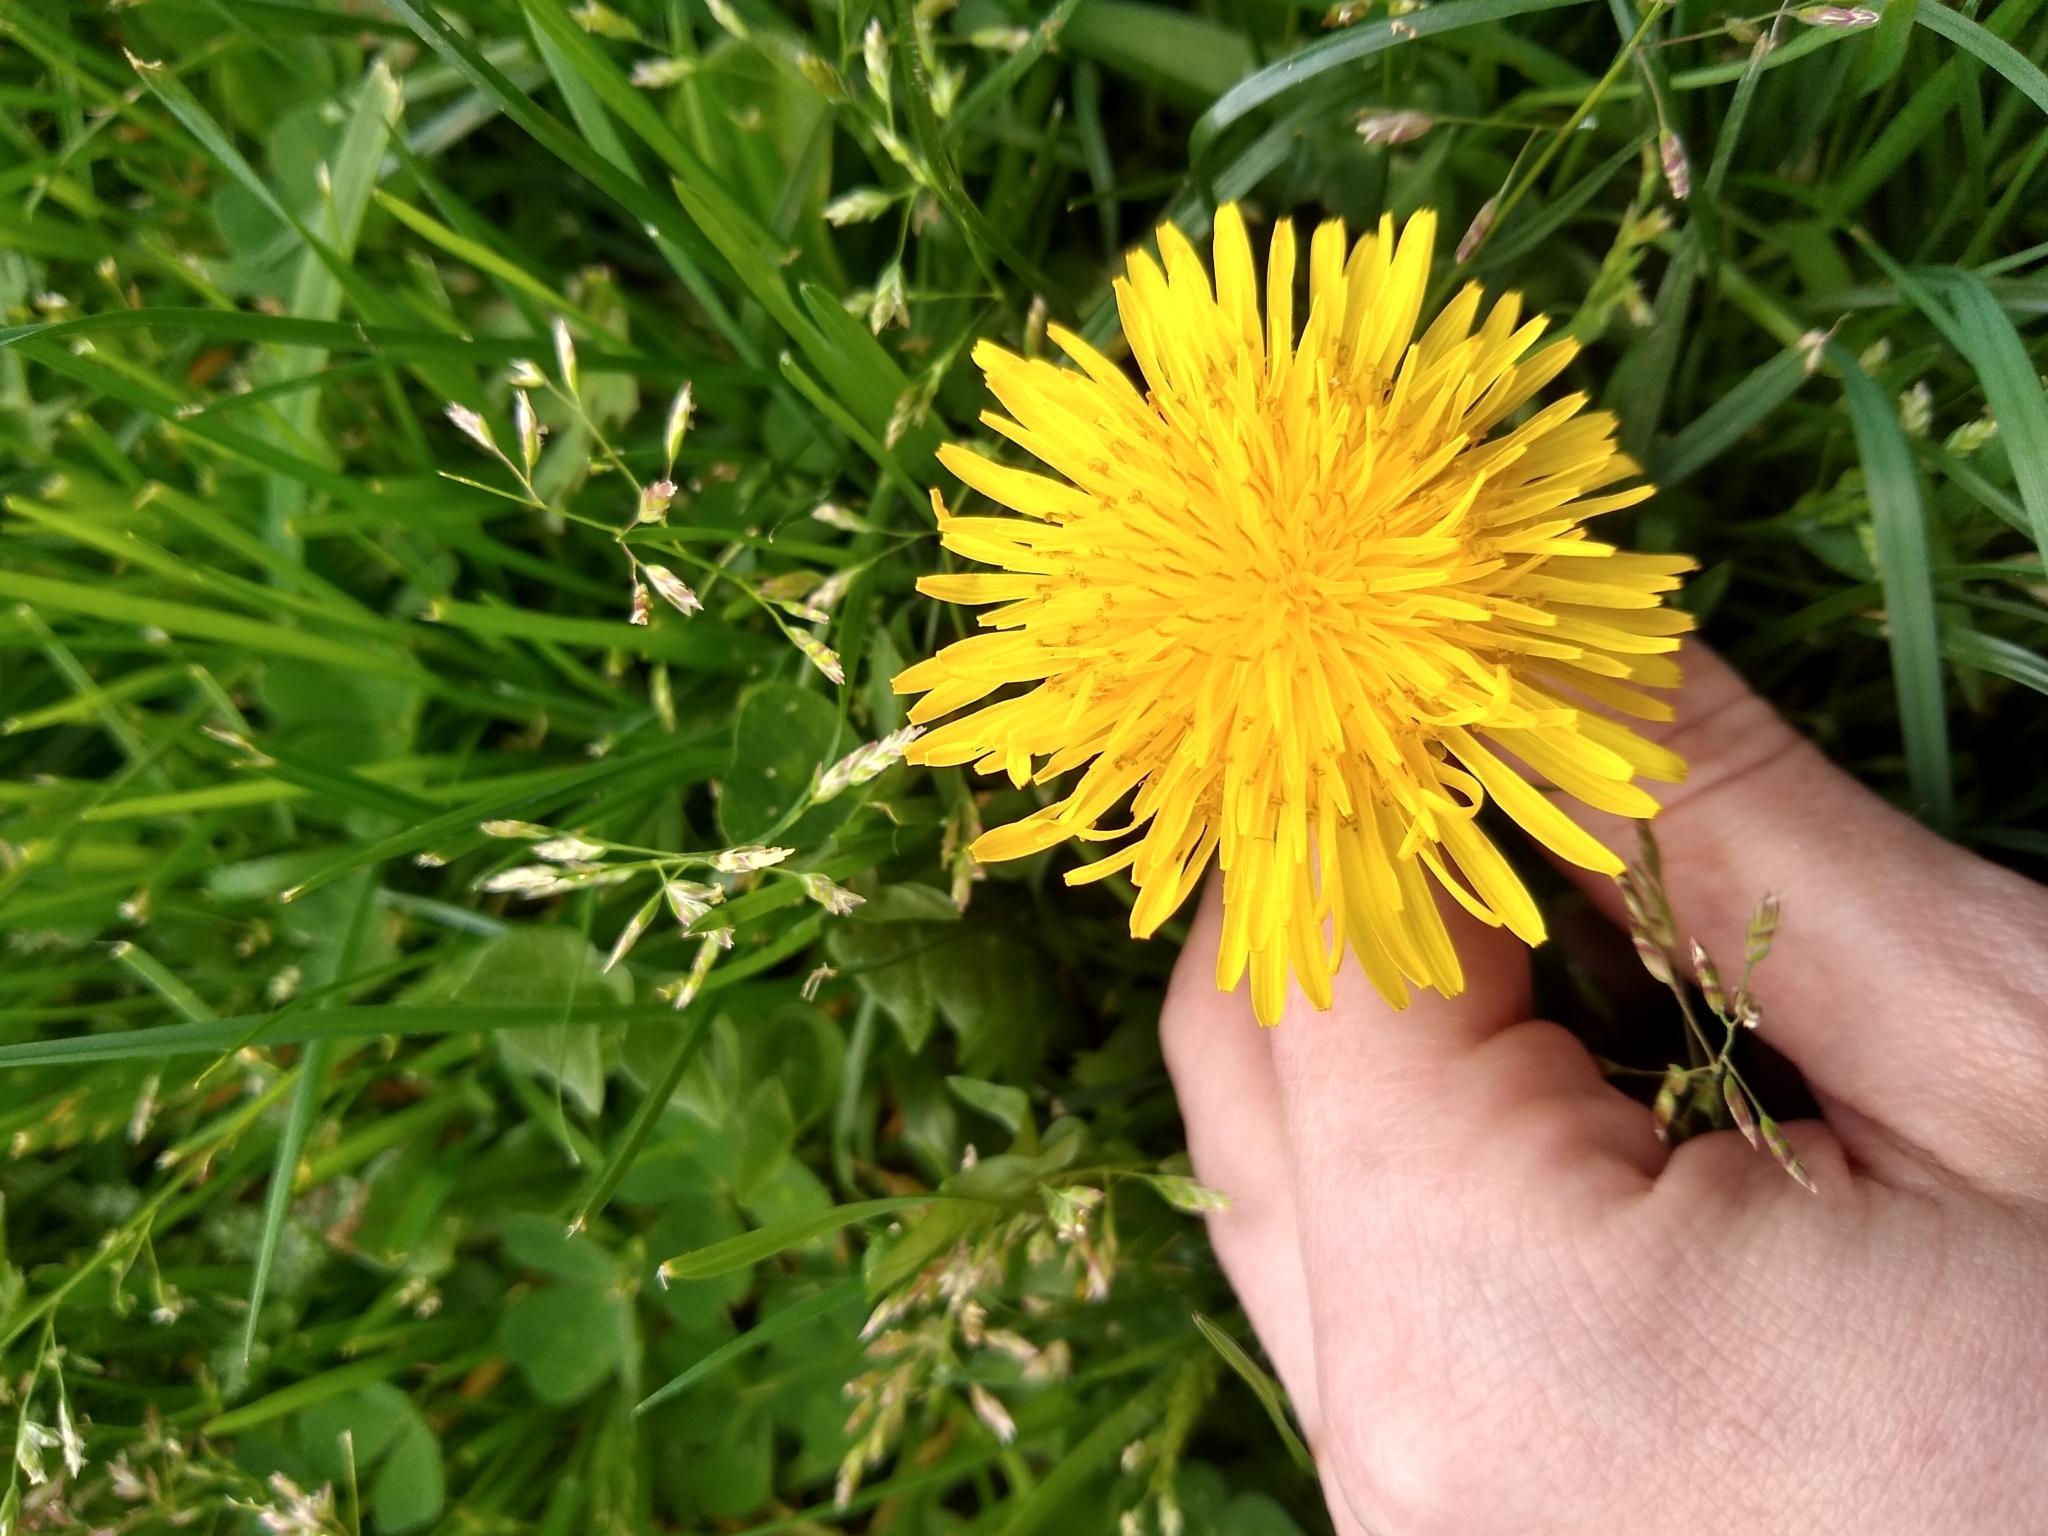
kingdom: Plantae
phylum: Tracheophyta
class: Magnoliopsida
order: Asterales
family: Asteraceae
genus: Taraxacum
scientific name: Taraxacum officinale
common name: Common dandelion
